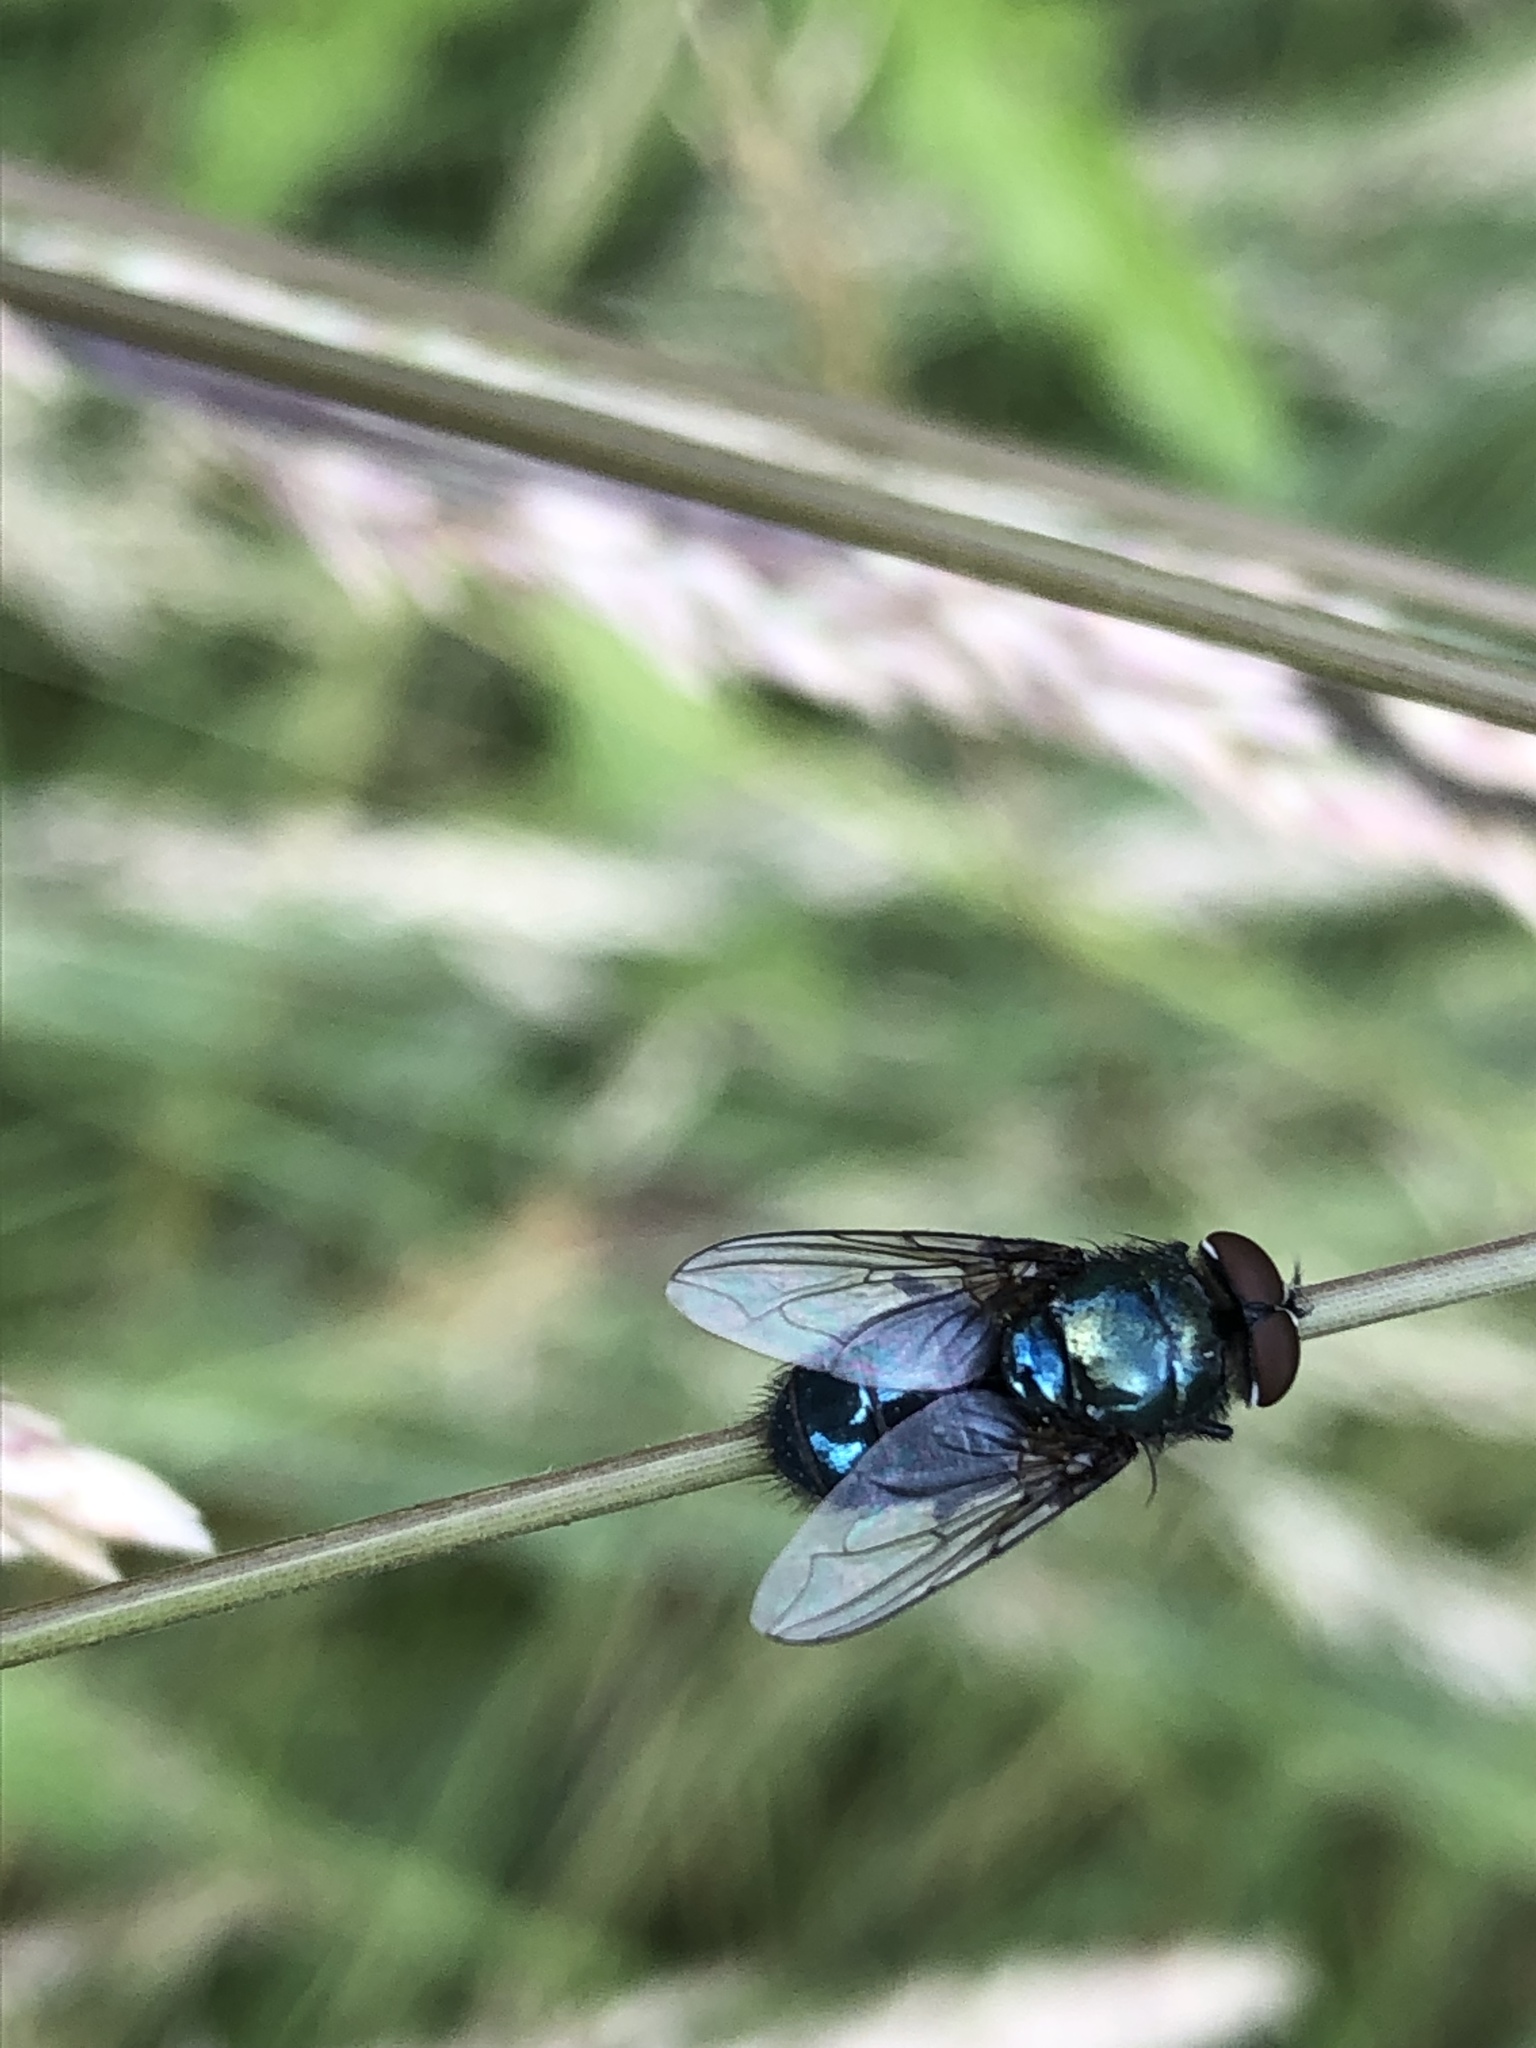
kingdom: Animalia
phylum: Arthropoda
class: Insecta
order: Diptera
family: Calliphoridae
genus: Phormia
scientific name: Phormia regina
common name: Black blow fly
